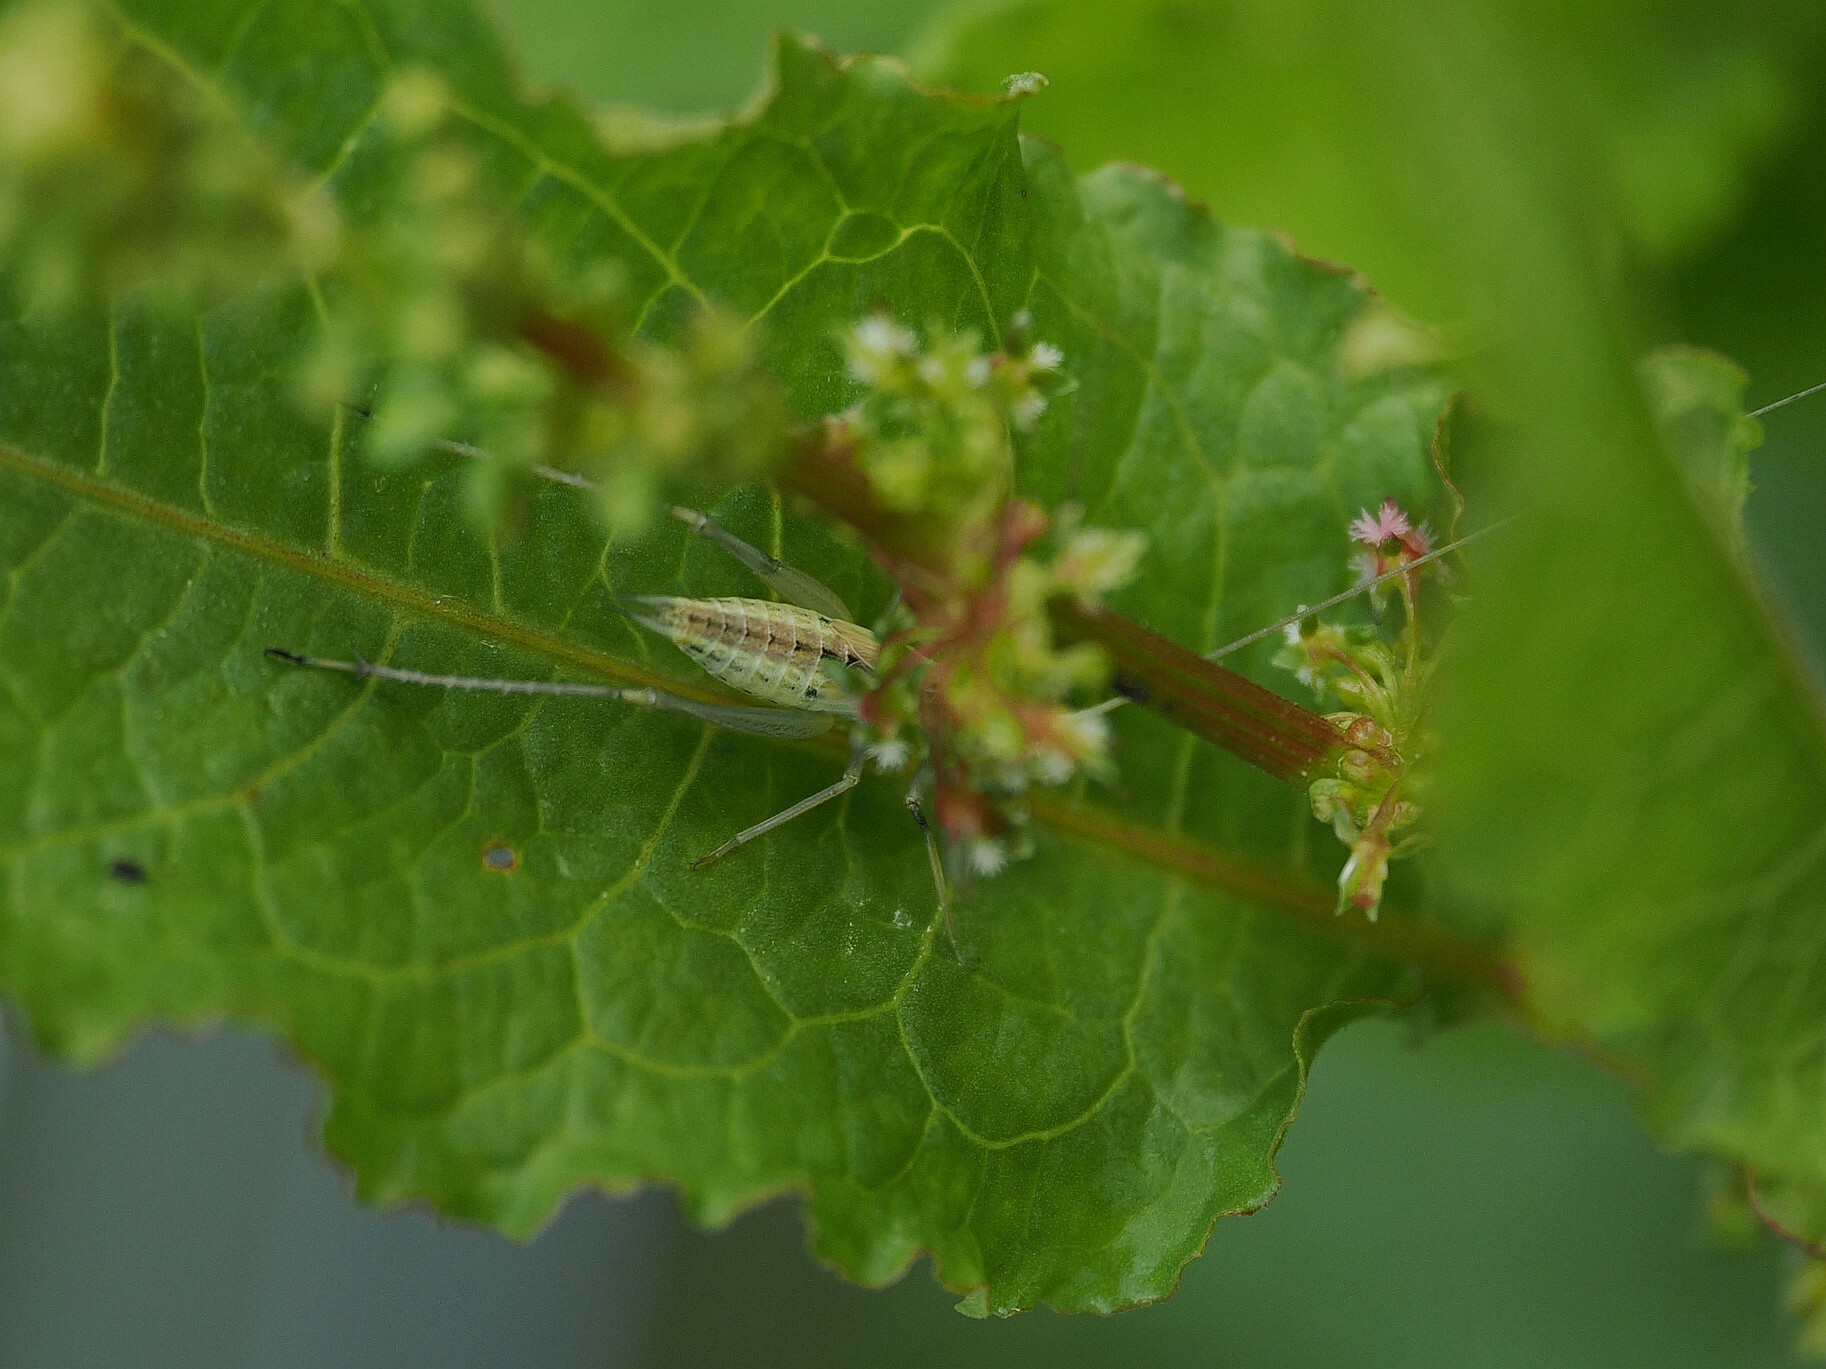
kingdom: Animalia
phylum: Arthropoda
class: Insecta
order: Orthoptera
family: Gryllidae
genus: Oecanthus
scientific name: Oecanthus pellucens
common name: Tree-cricket
